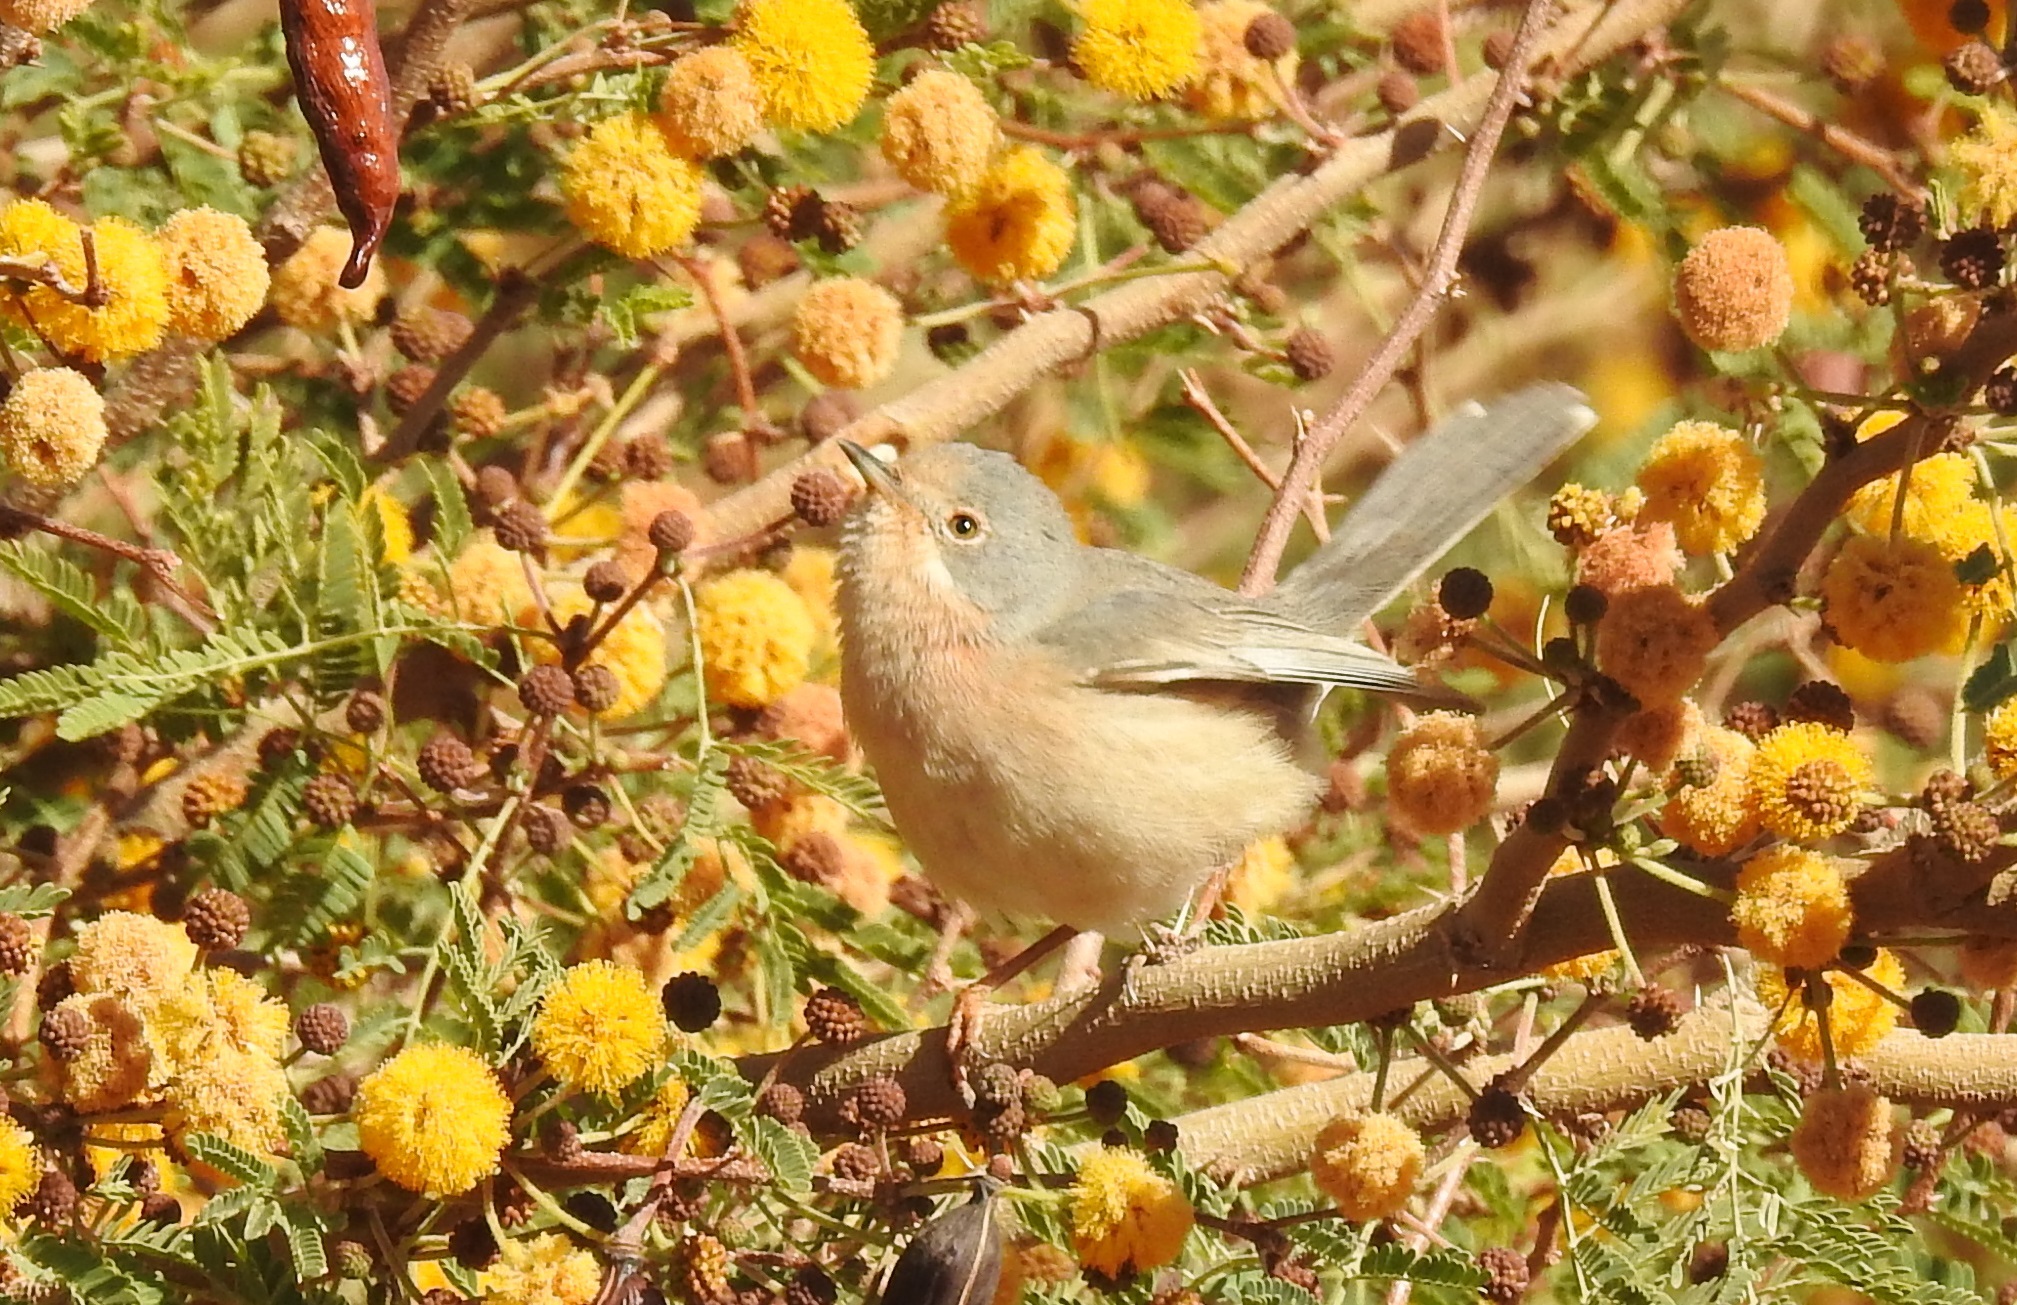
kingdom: Animalia
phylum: Chordata
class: Aves
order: Passeriformes
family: Sylviidae
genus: Curruca
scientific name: Curruca subalpina
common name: Moltoni's warbler
